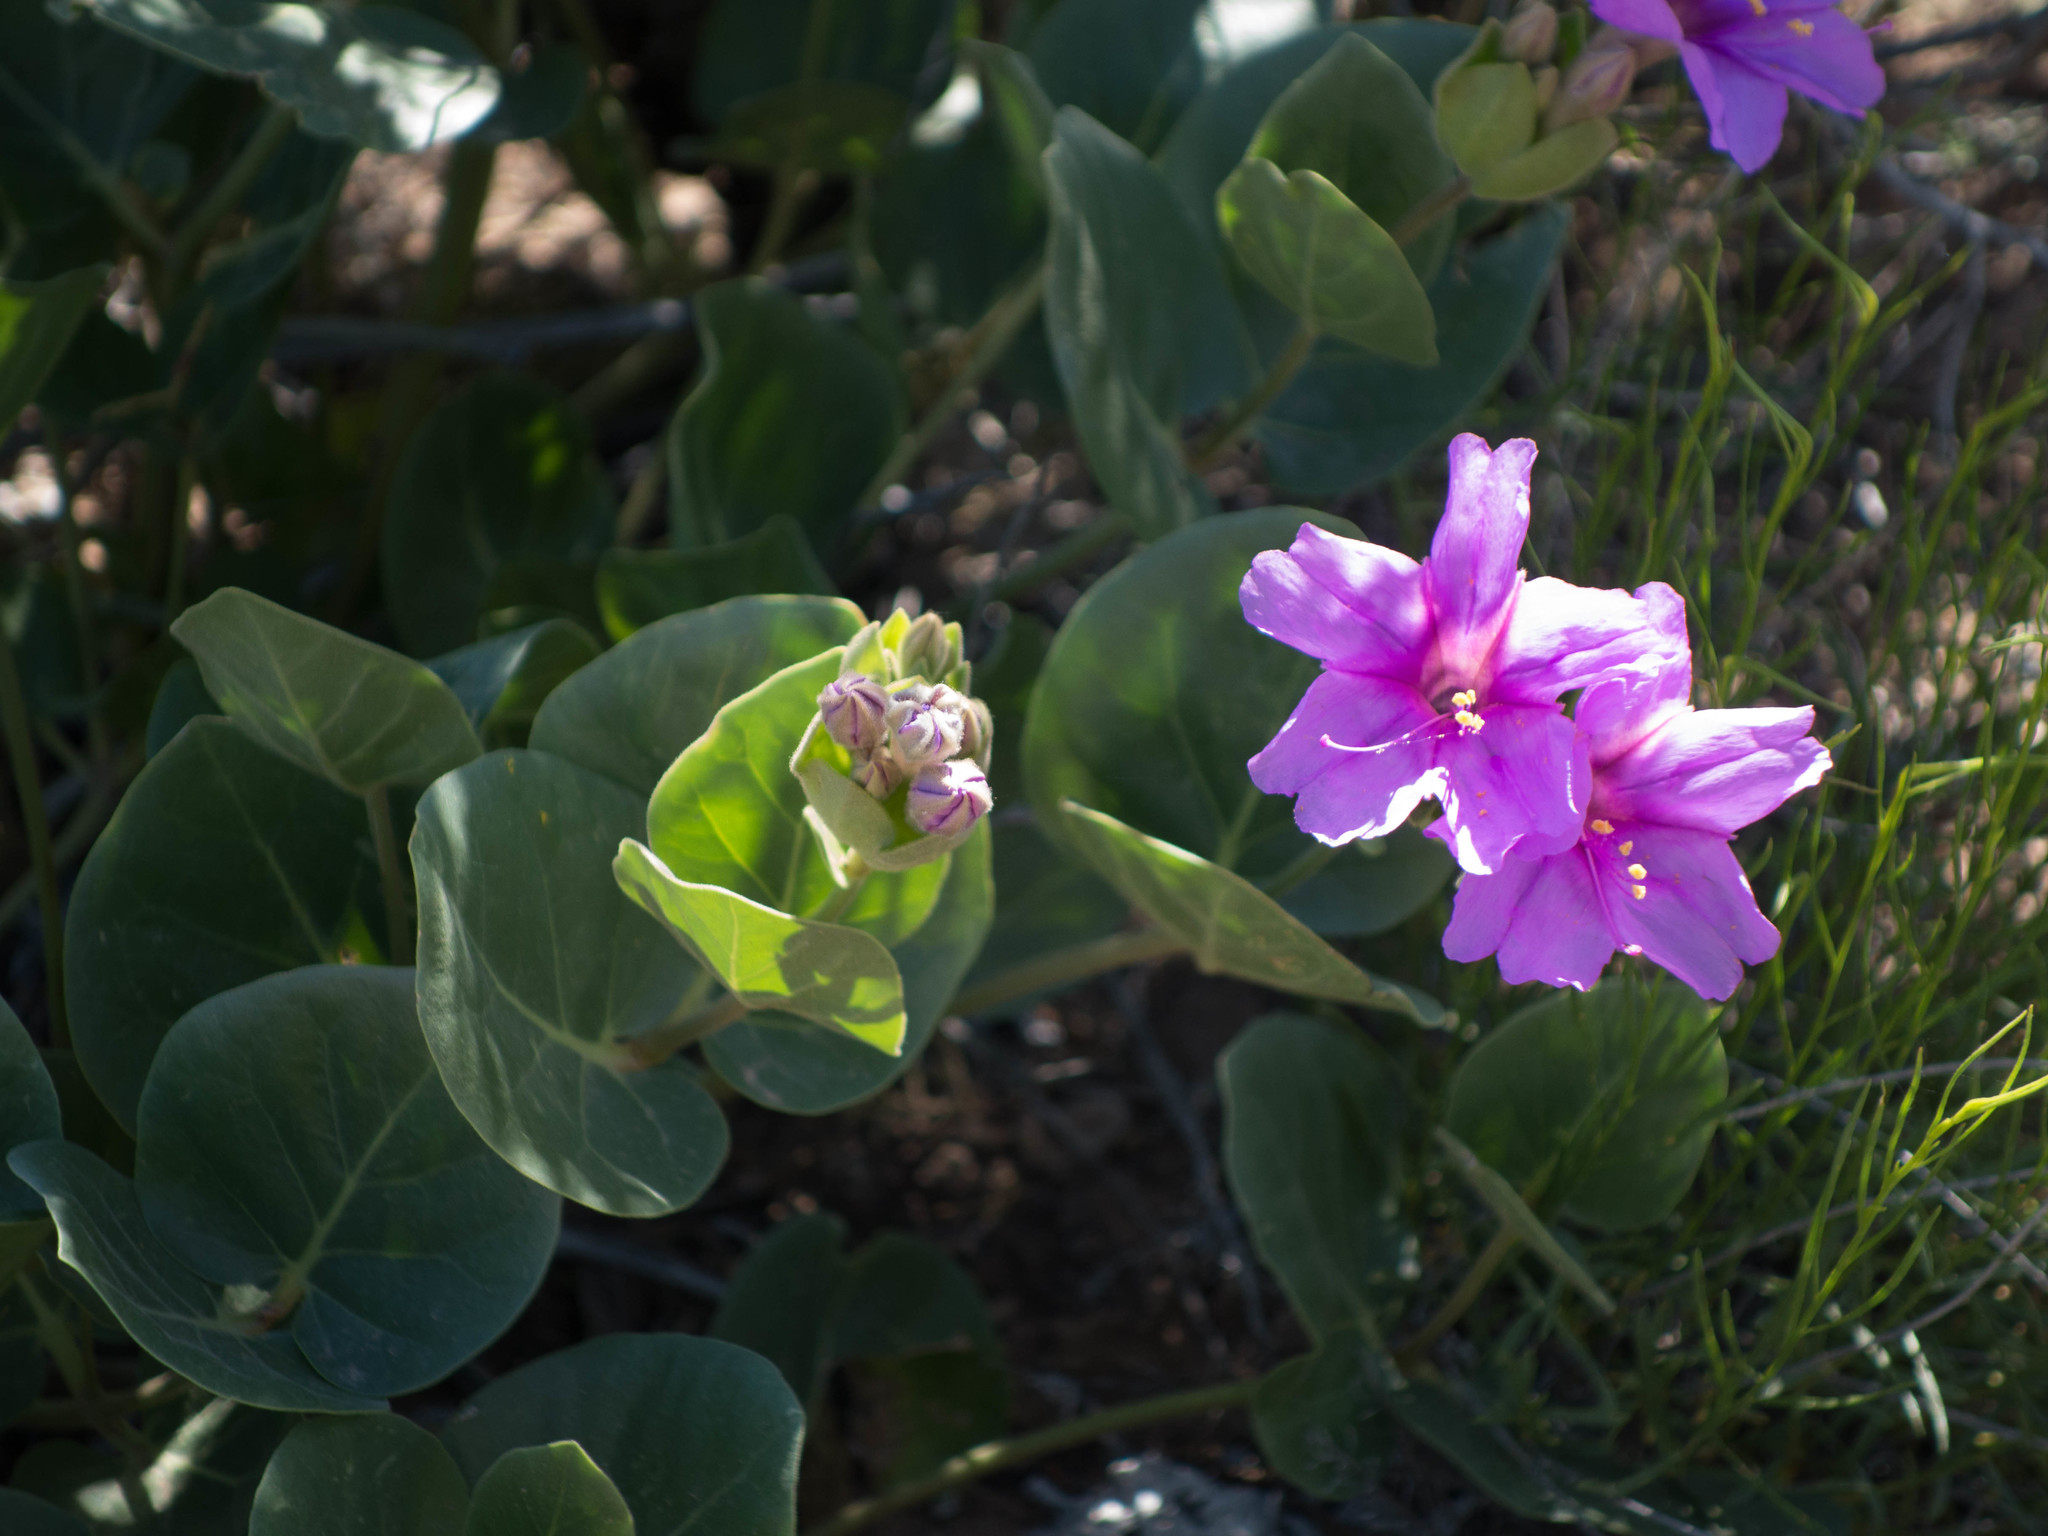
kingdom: Plantae
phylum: Tracheophyta
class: Magnoliopsida
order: Caryophyllales
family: Nyctaginaceae
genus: Mirabilis
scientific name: Mirabilis multiflora
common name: Froebel's four-o'clock
